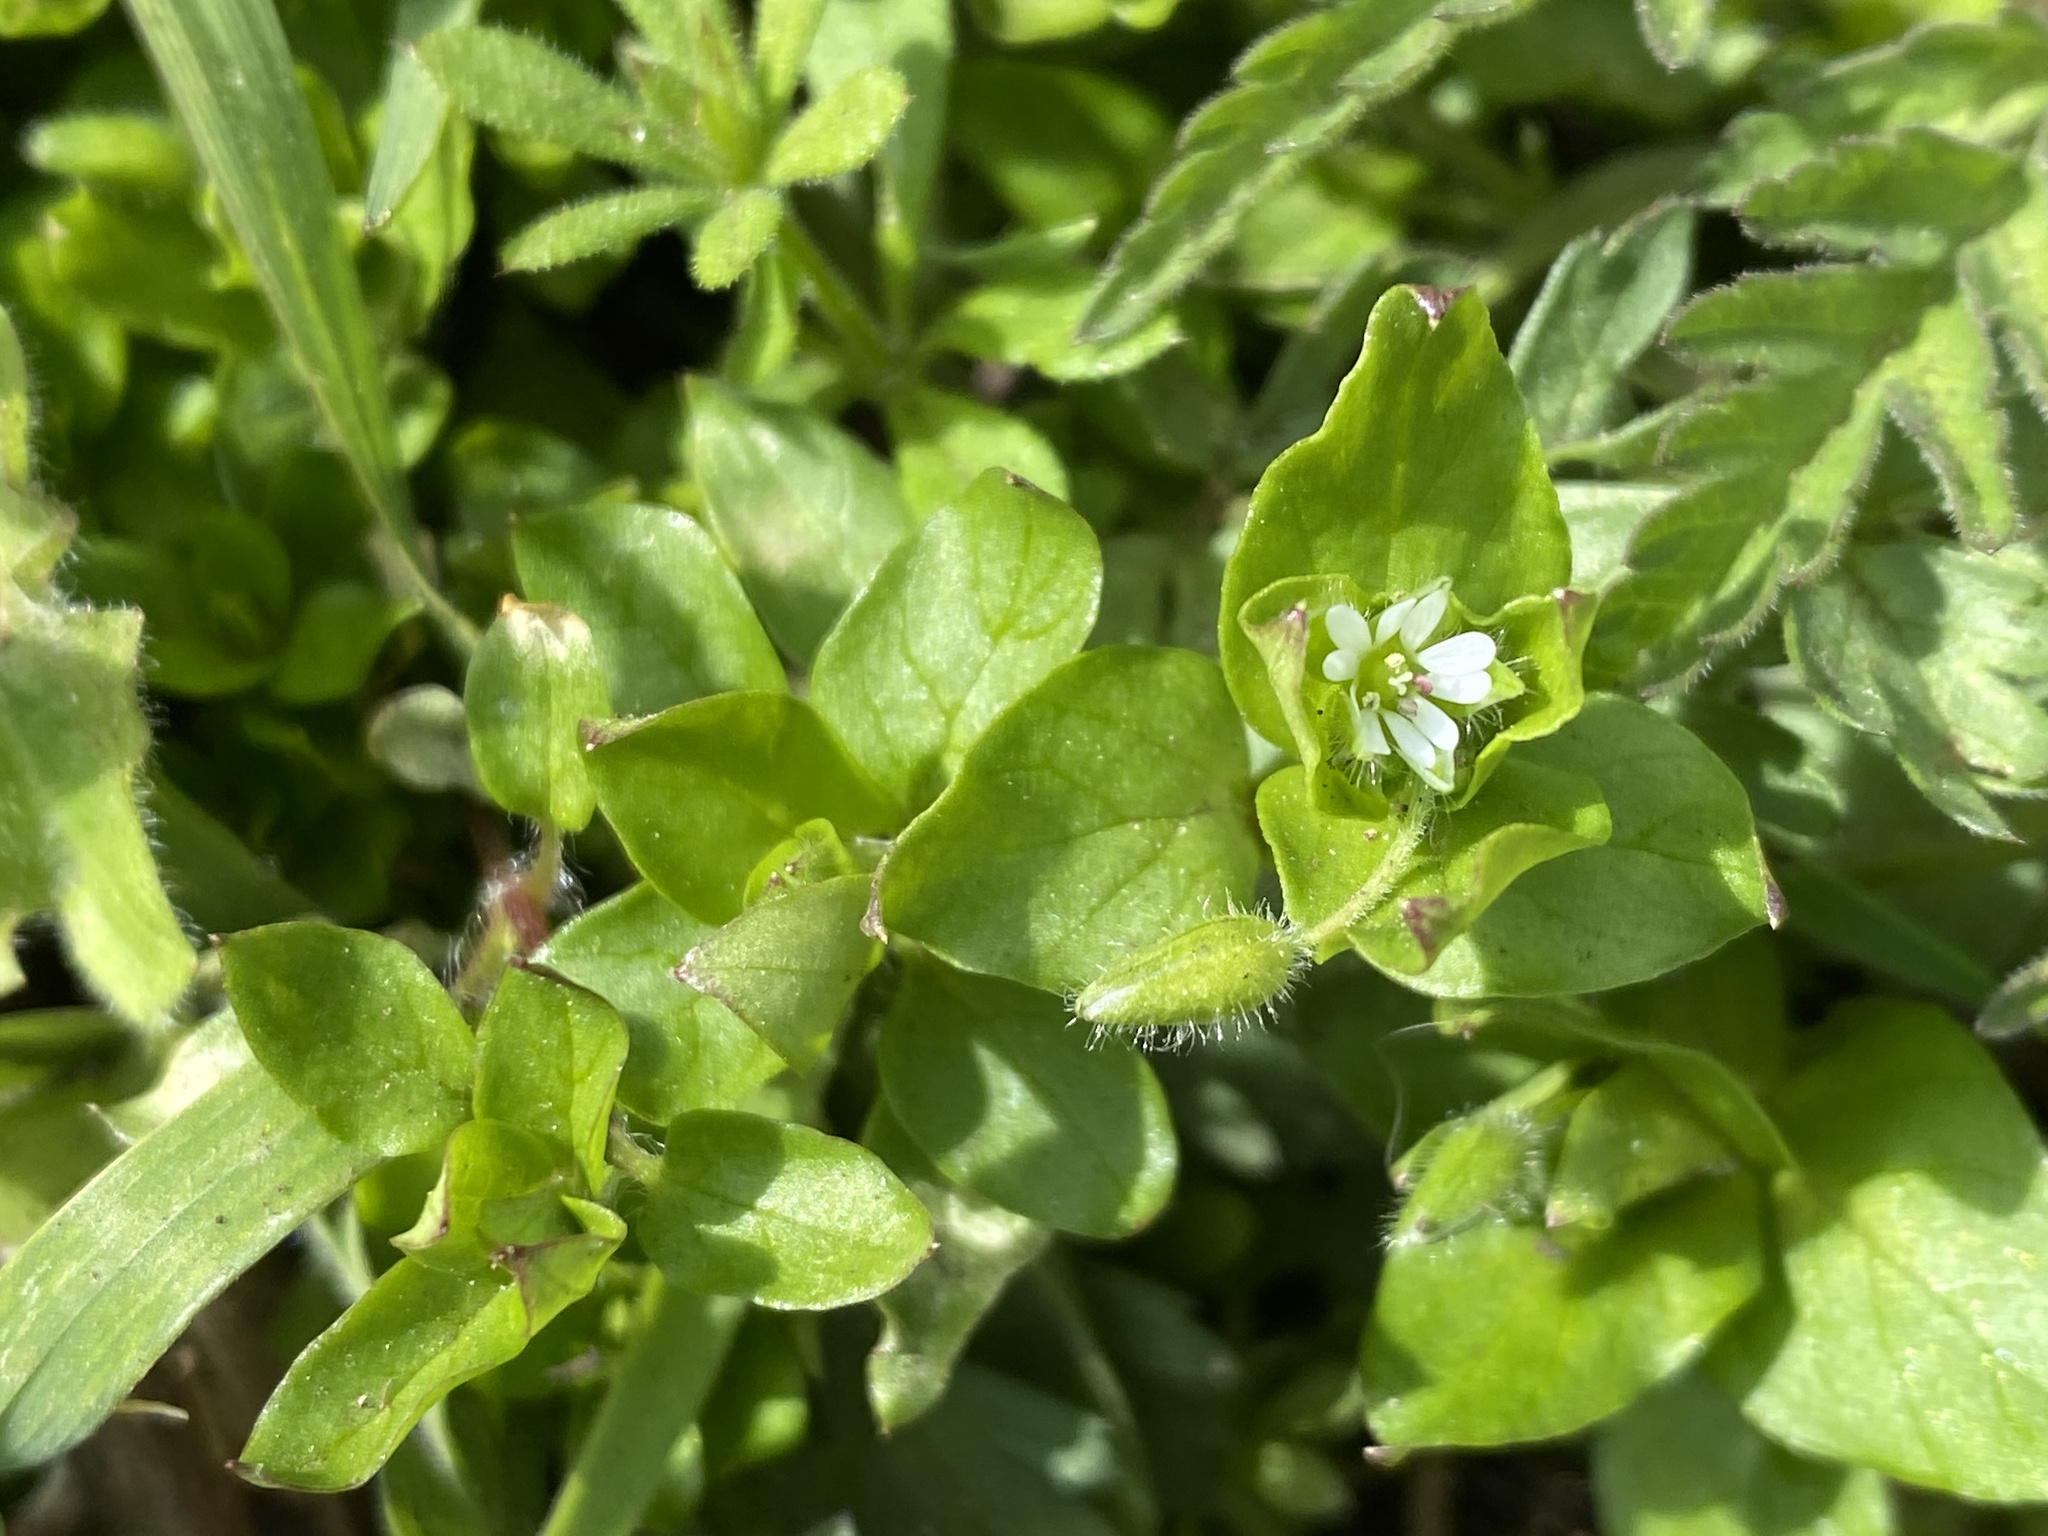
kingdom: Plantae
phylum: Tracheophyta
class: Magnoliopsida
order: Caryophyllales
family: Caryophyllaceae
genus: Stellaria
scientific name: Stellaria media
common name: Common chickweed
